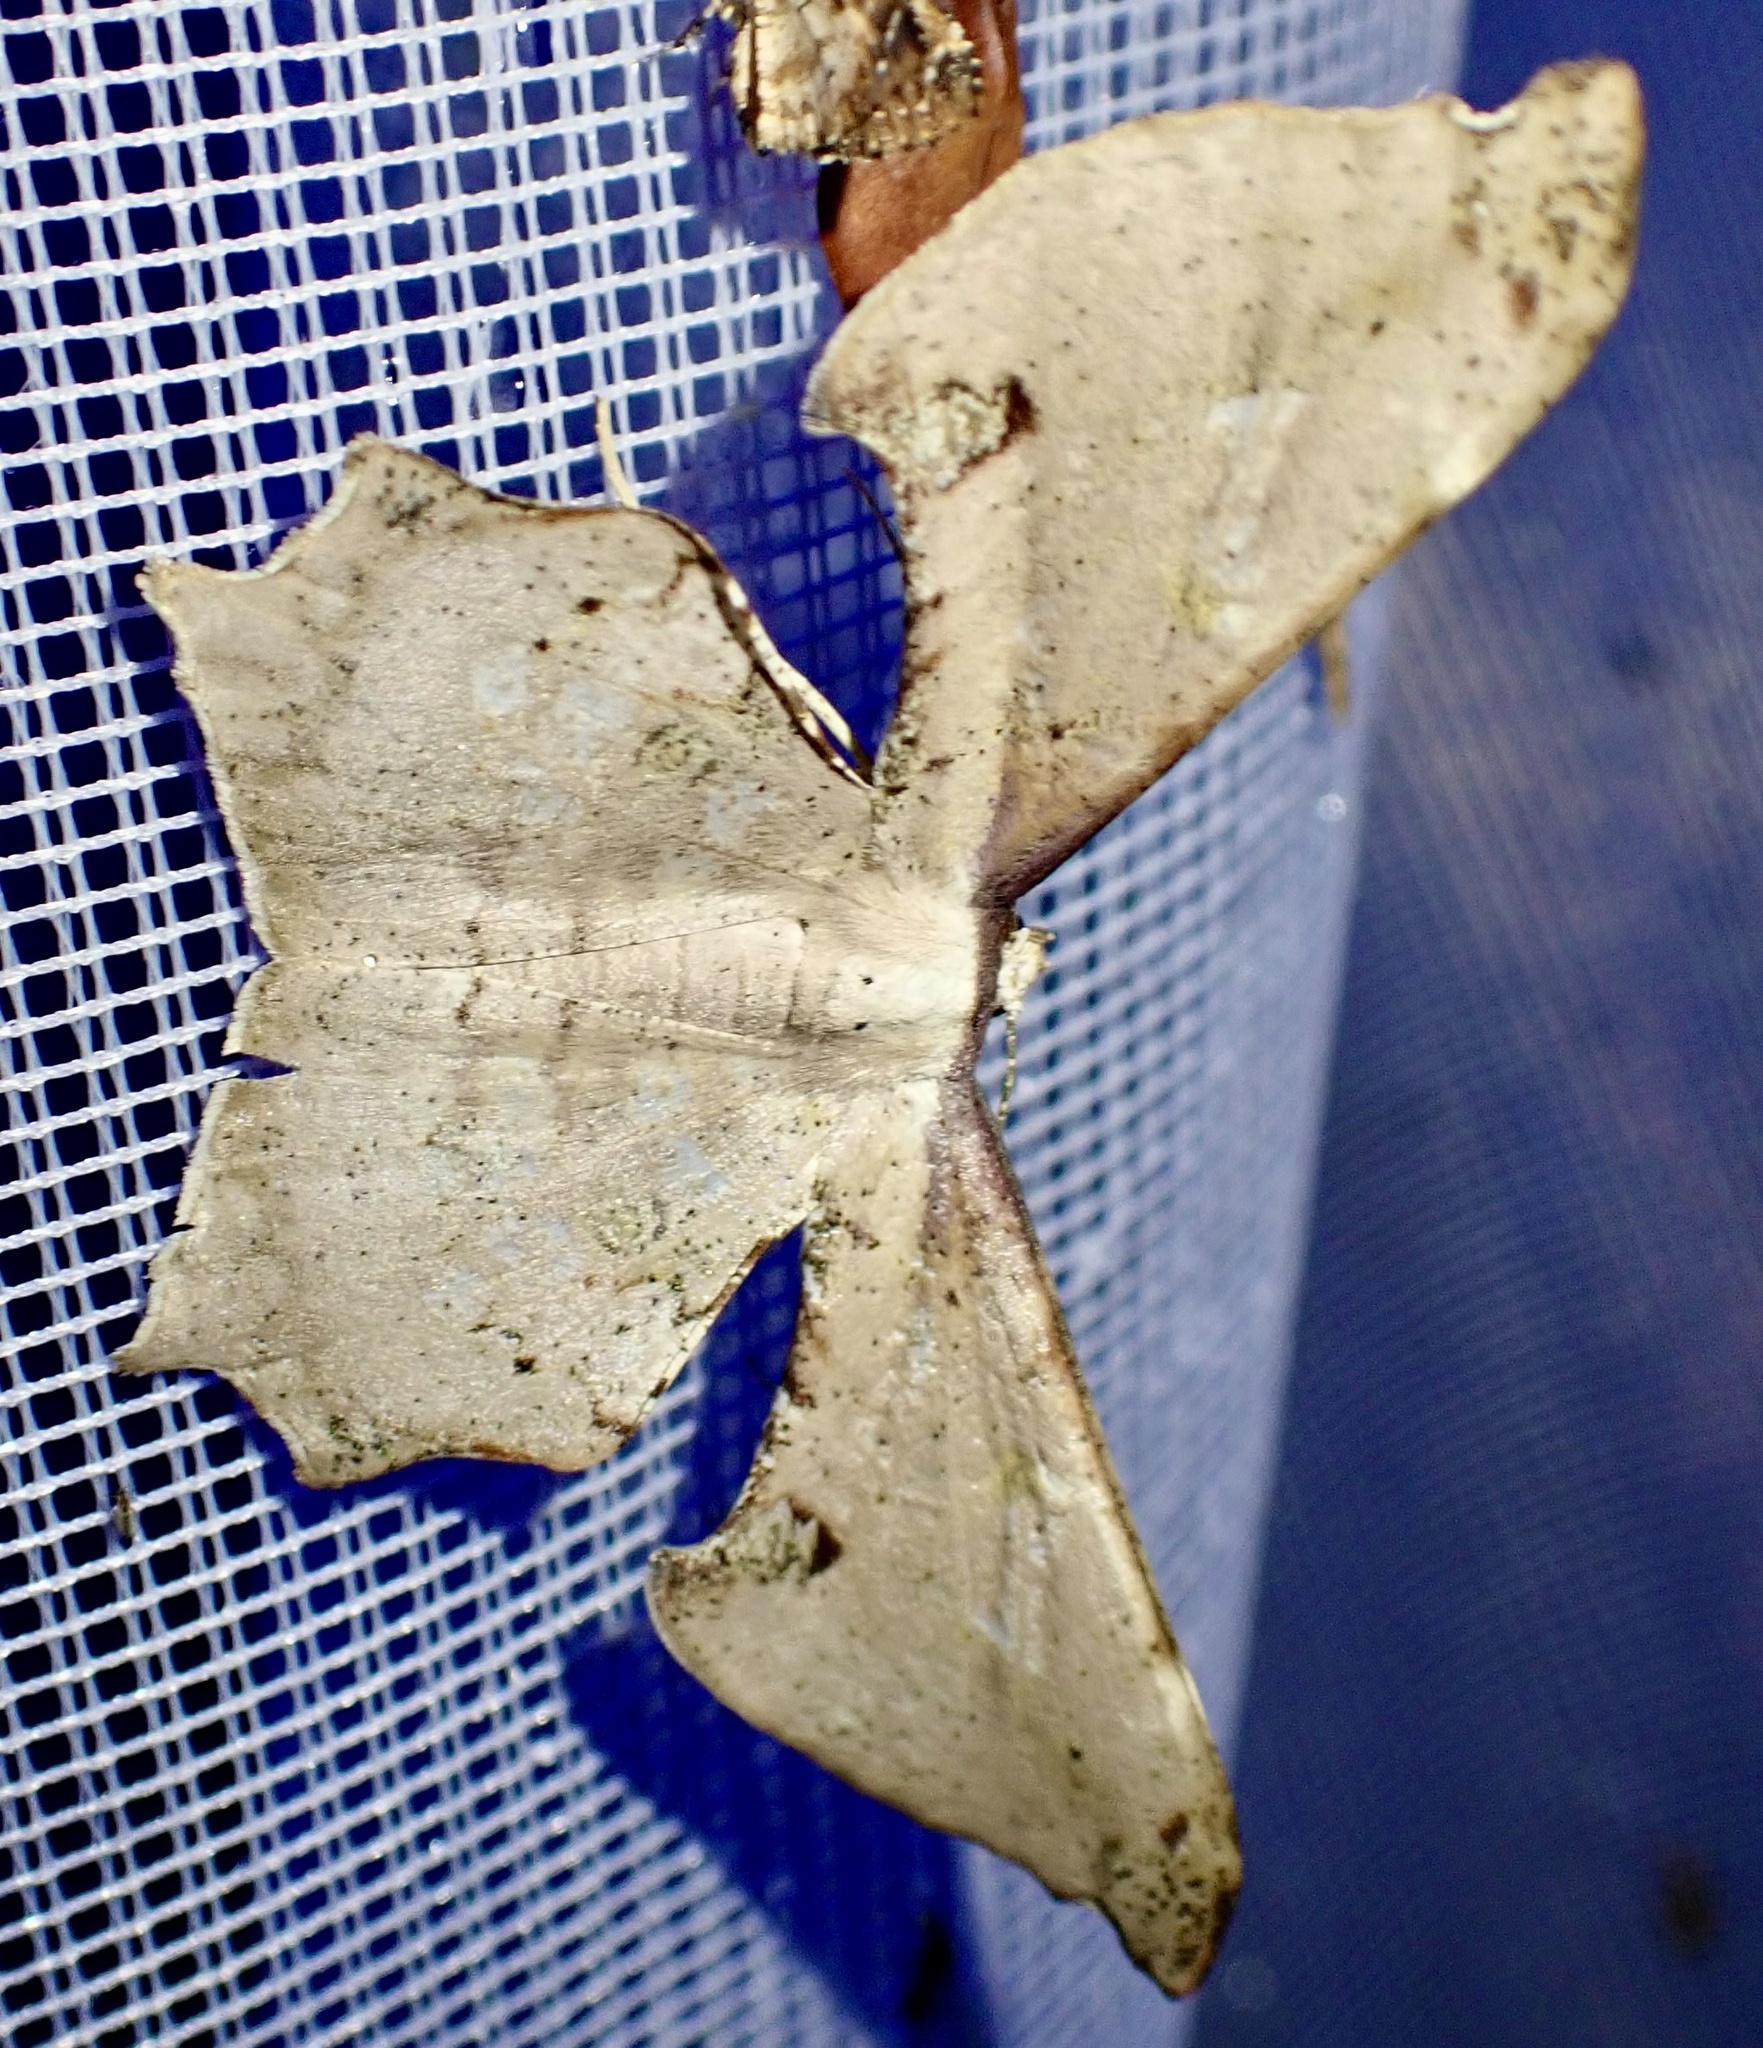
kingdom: Animalia
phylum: Arthropoda
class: Insecta
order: Lepidoptera
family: Geometridae
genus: Xylinophylla
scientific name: Xylinophylla maculata
